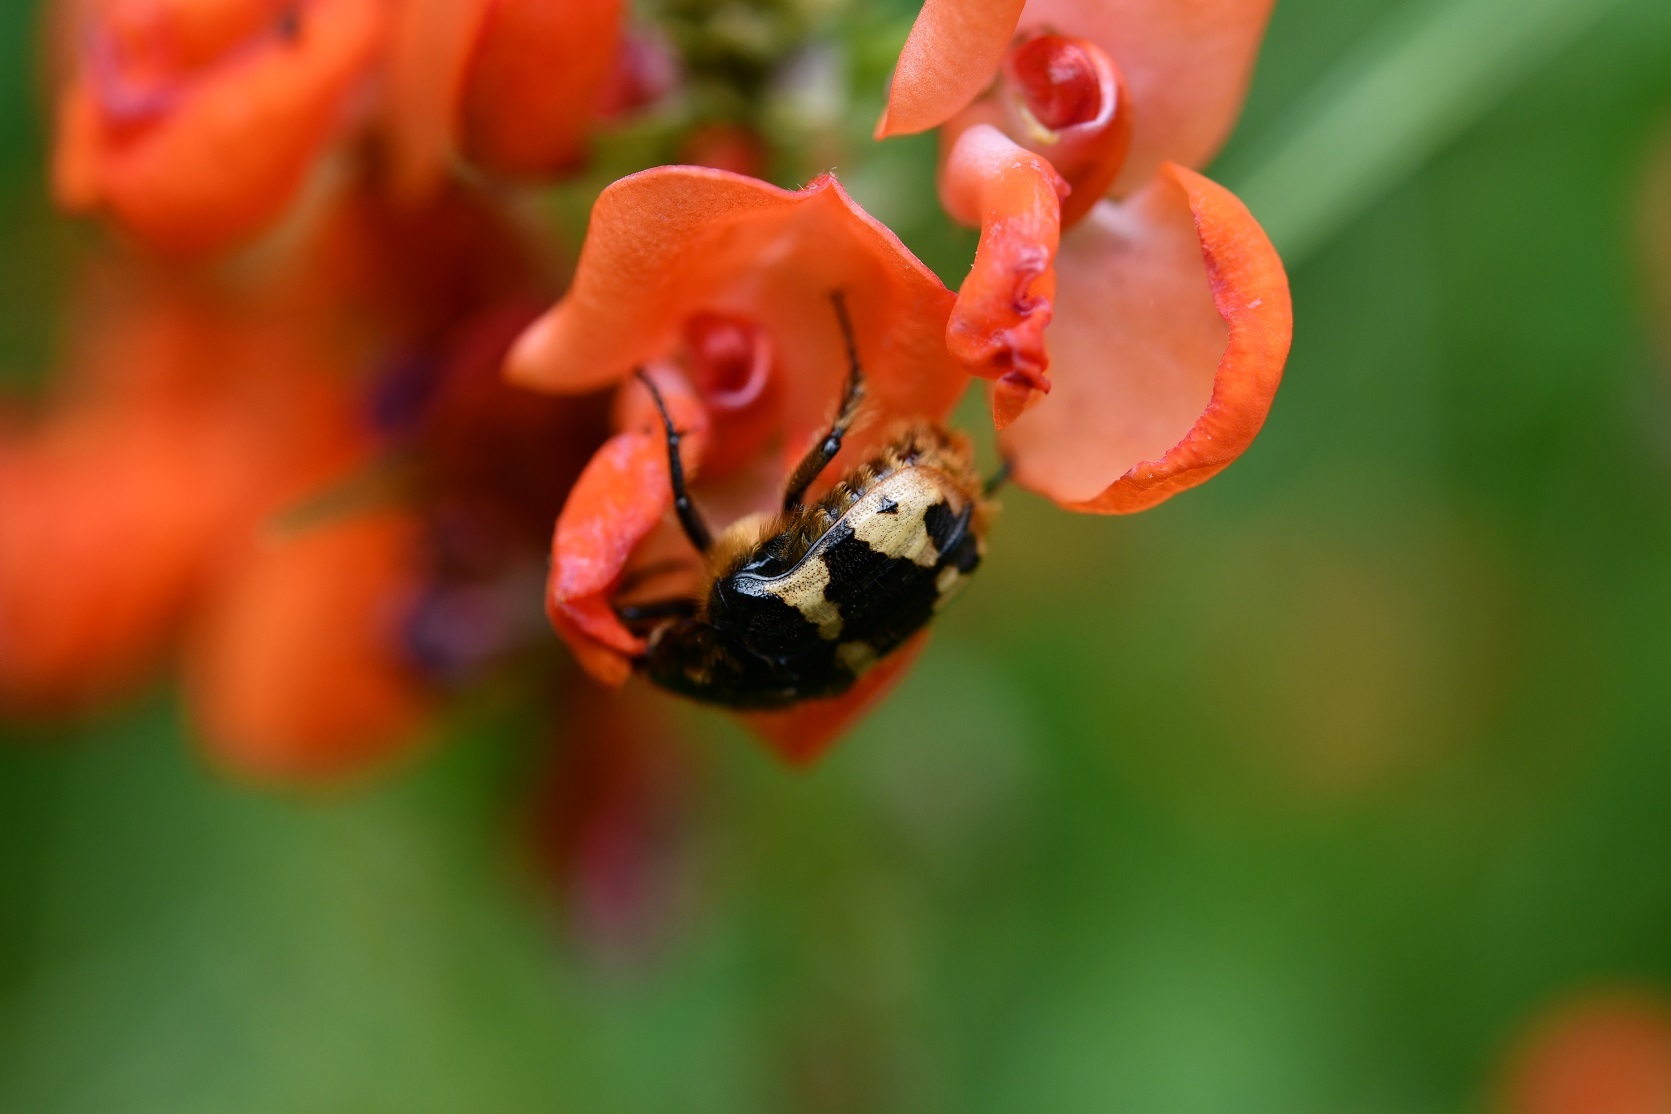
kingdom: Animalia
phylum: Arthropoda
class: Insecta
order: Coleoptera
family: Scarabaeidae
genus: Euphoria
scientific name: Euphoria basalis
